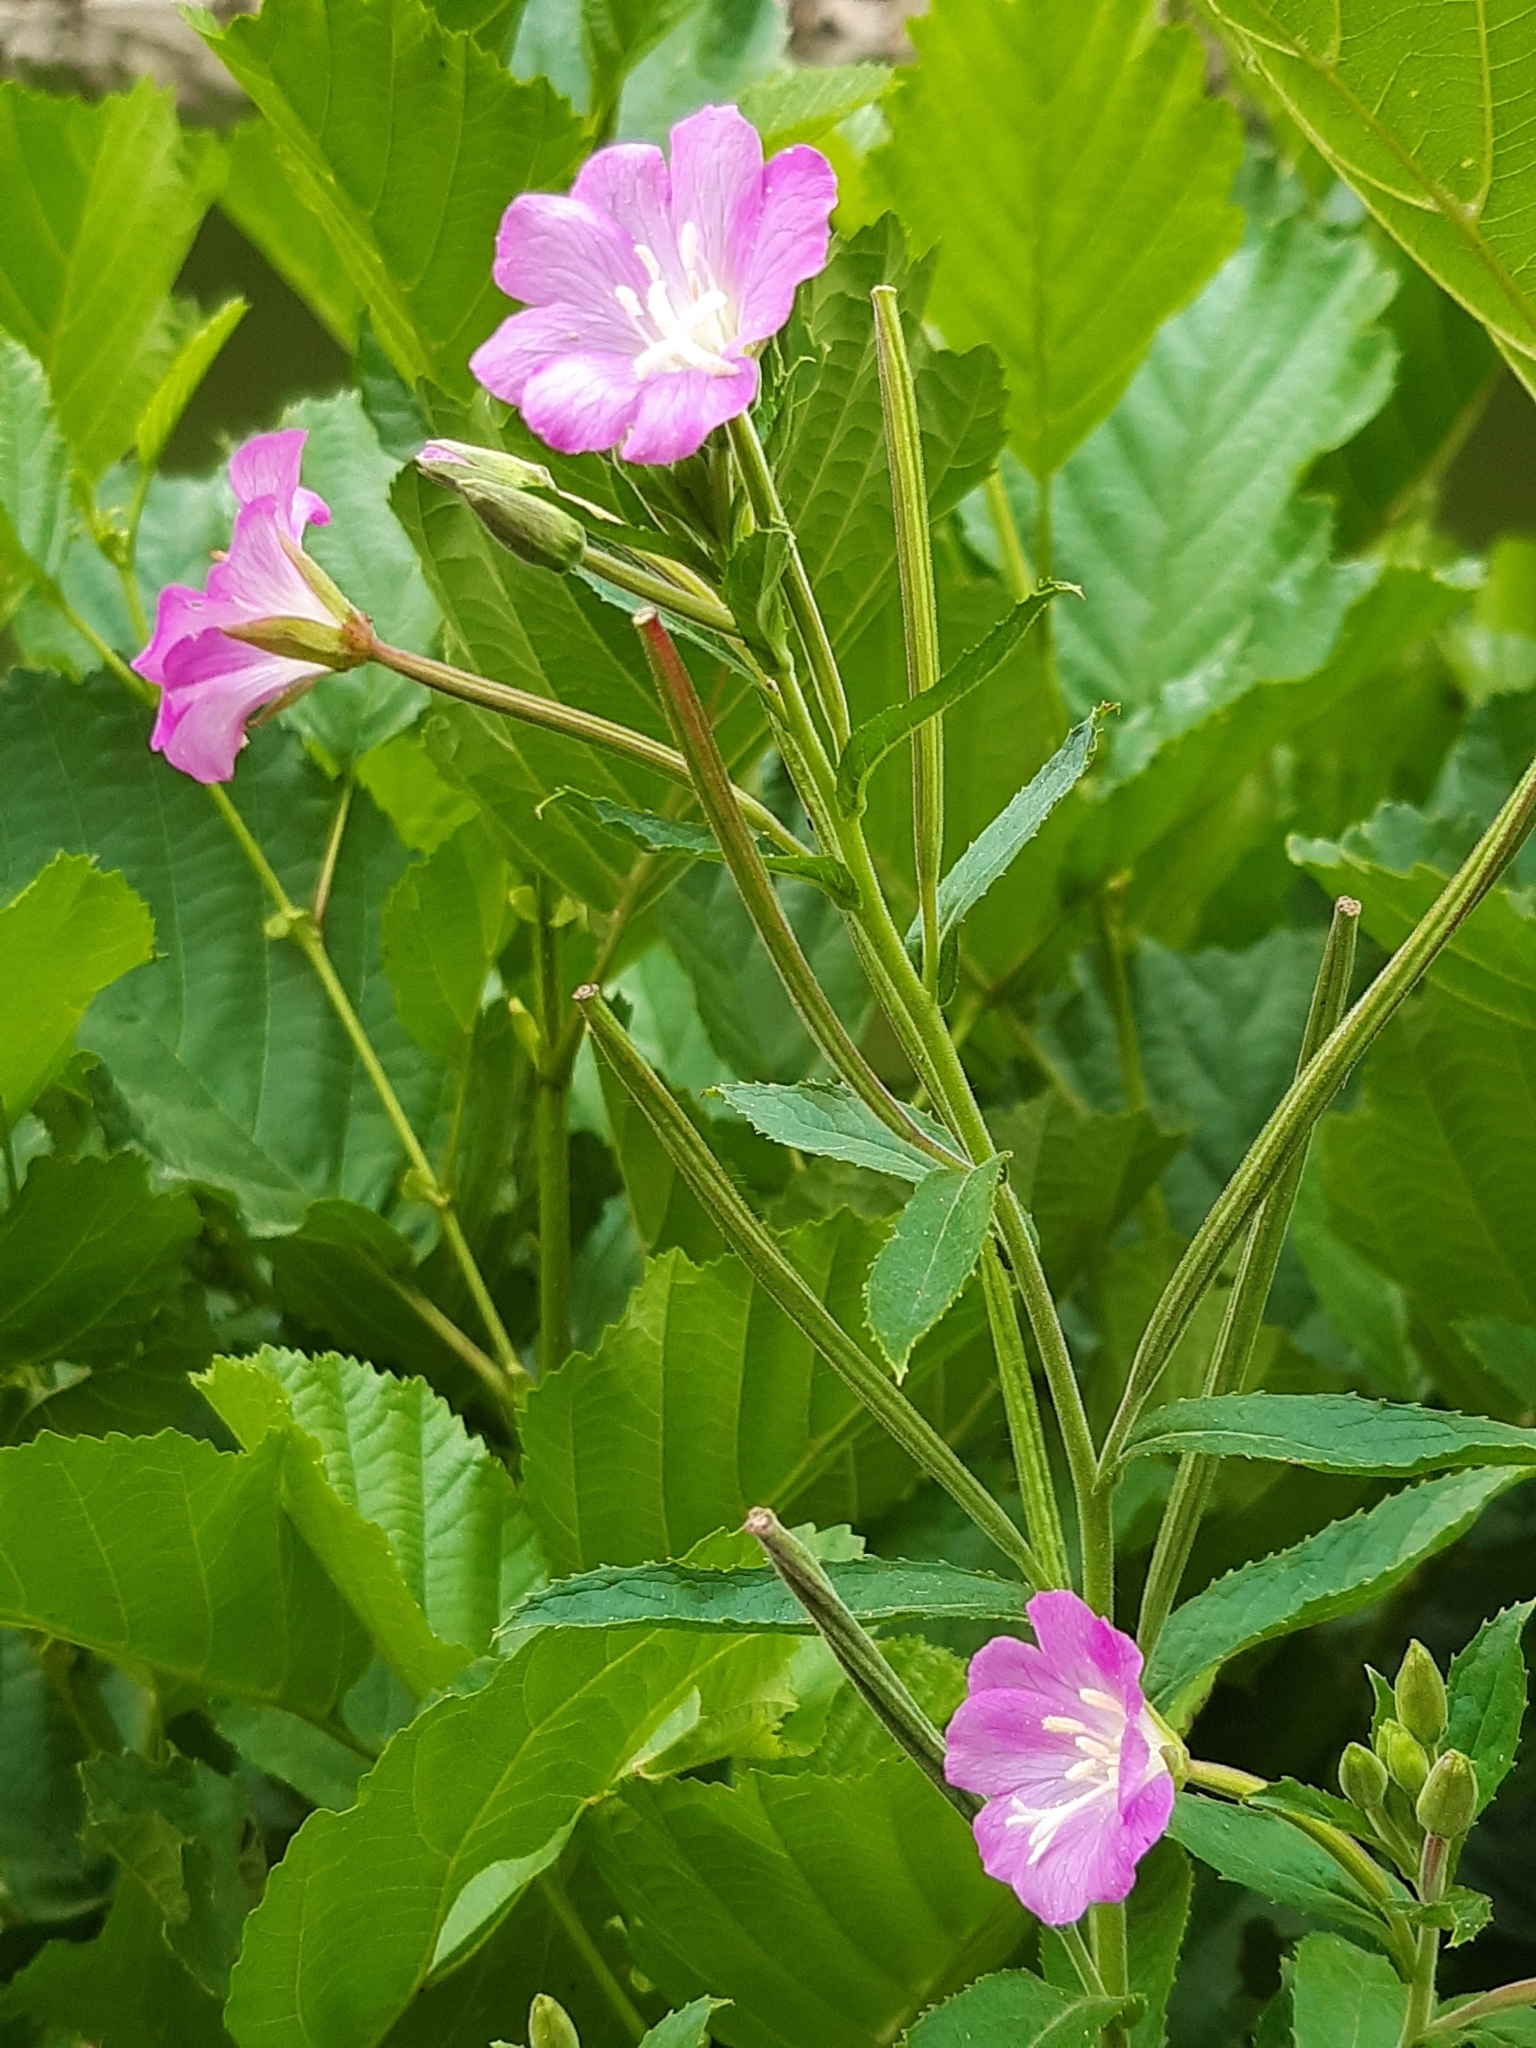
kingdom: Plantae
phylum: Tracheophyta
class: Magnoliopsida
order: Myrtales
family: Onagraceae
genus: Epilobium
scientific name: Epilobium hirsutum
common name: Great willowherb
